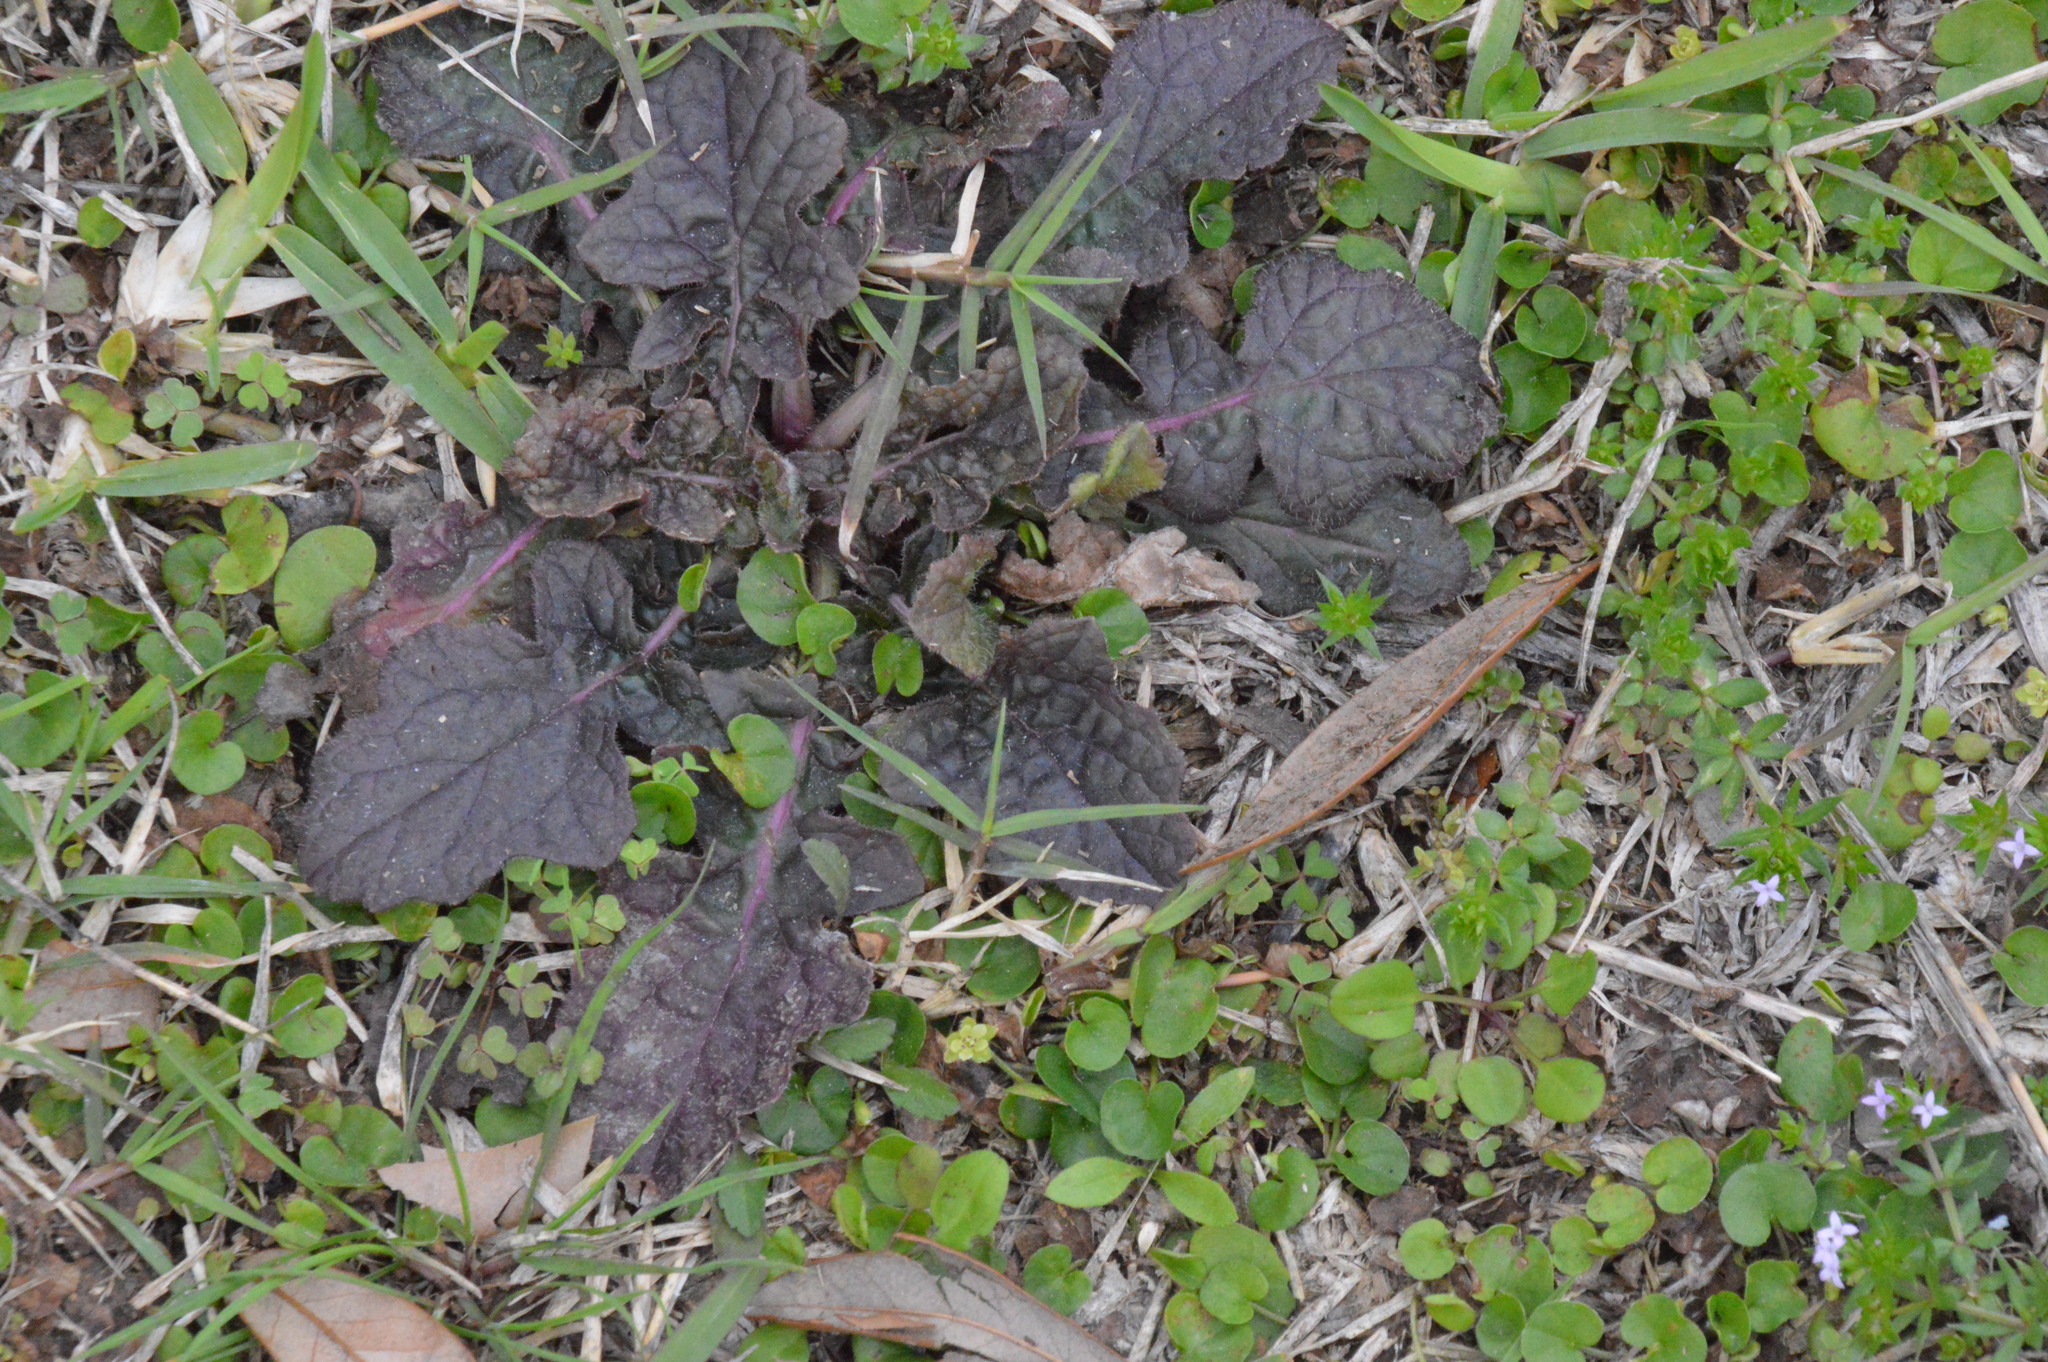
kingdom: Plantae
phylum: Tracheophyta
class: Magnoliopsida
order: Lamiales
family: Lamiaceae
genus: Salvia
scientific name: Salvia lyrata
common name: Cancerweed
